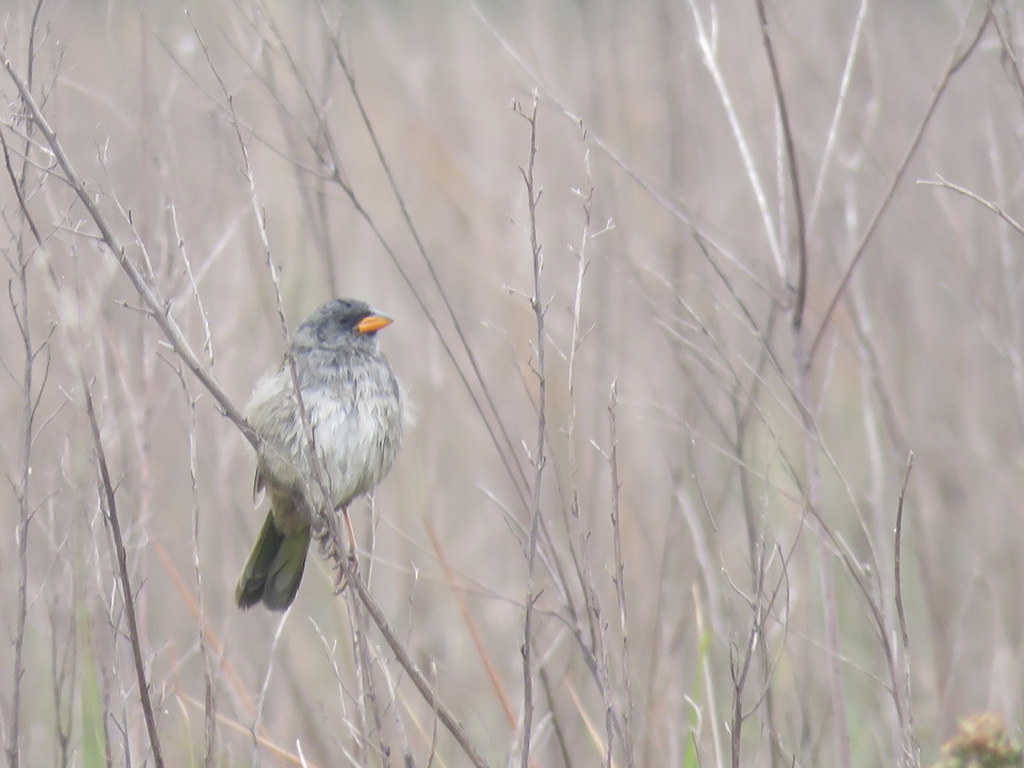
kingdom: Animalia
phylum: Chordata
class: Aves
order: Passeriformes
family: Thraupidae
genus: Embernagra
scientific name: Embernagra platensis
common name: Pampa finch
